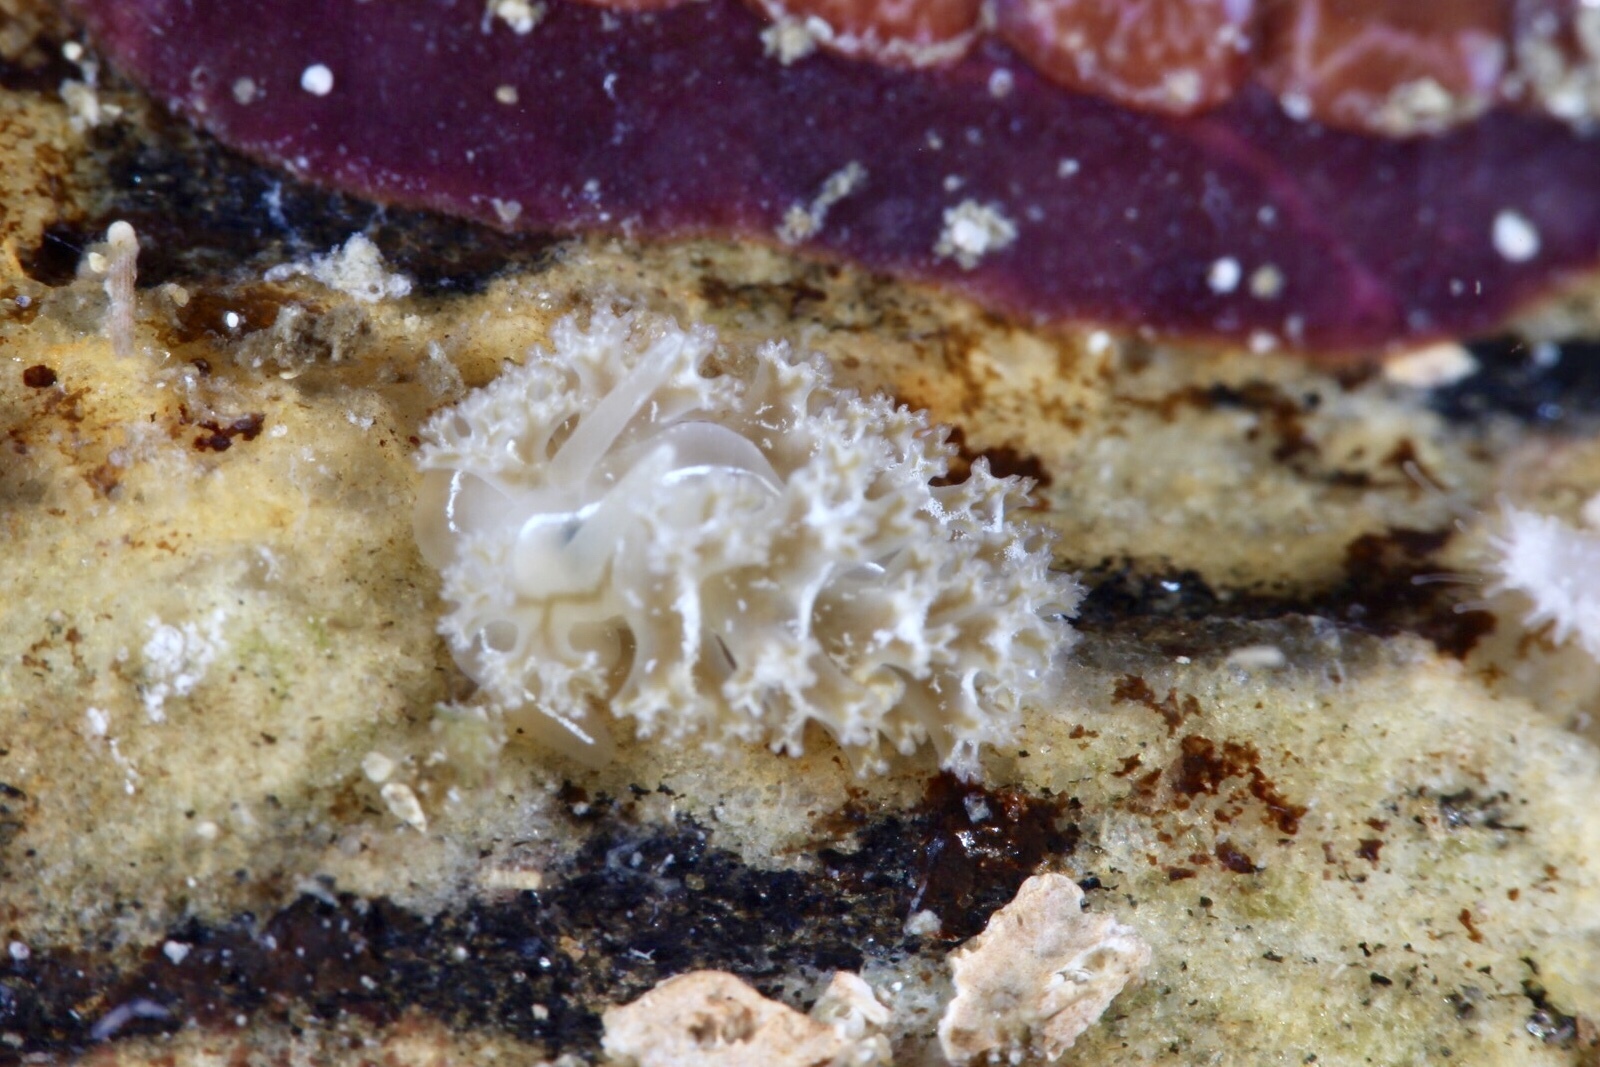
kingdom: Animalia
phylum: Mollusca
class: Gastropoda
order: Nudibranchia
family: Heroidae
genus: Hero
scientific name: Hero formosa
